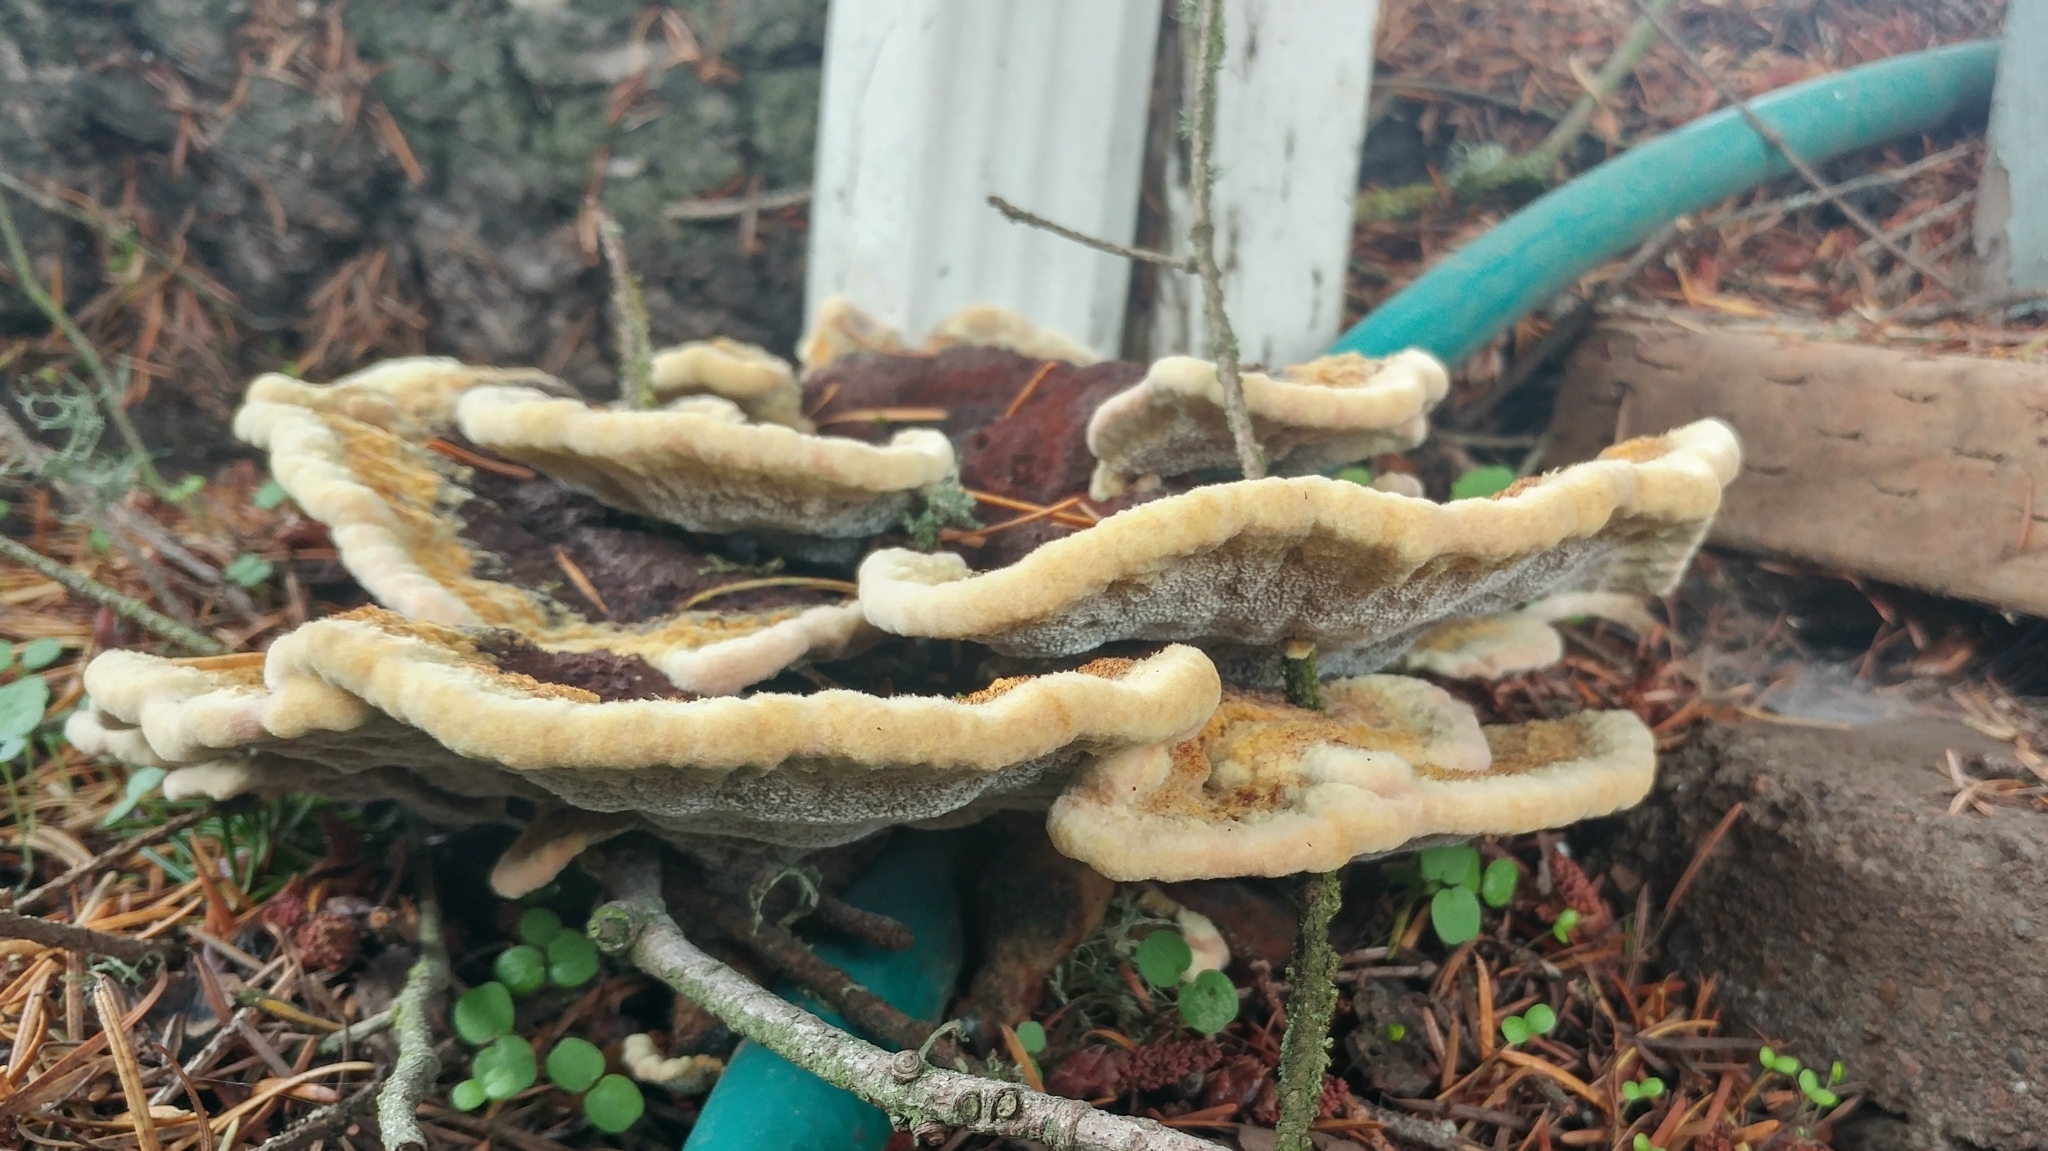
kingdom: Fungi
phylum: Basidiomycota
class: Agaricomycetes
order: Polyporales
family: Laetiporaceae
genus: Phaeolus
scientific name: Phaeolus schweinitzii
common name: Dyer's mazegill
